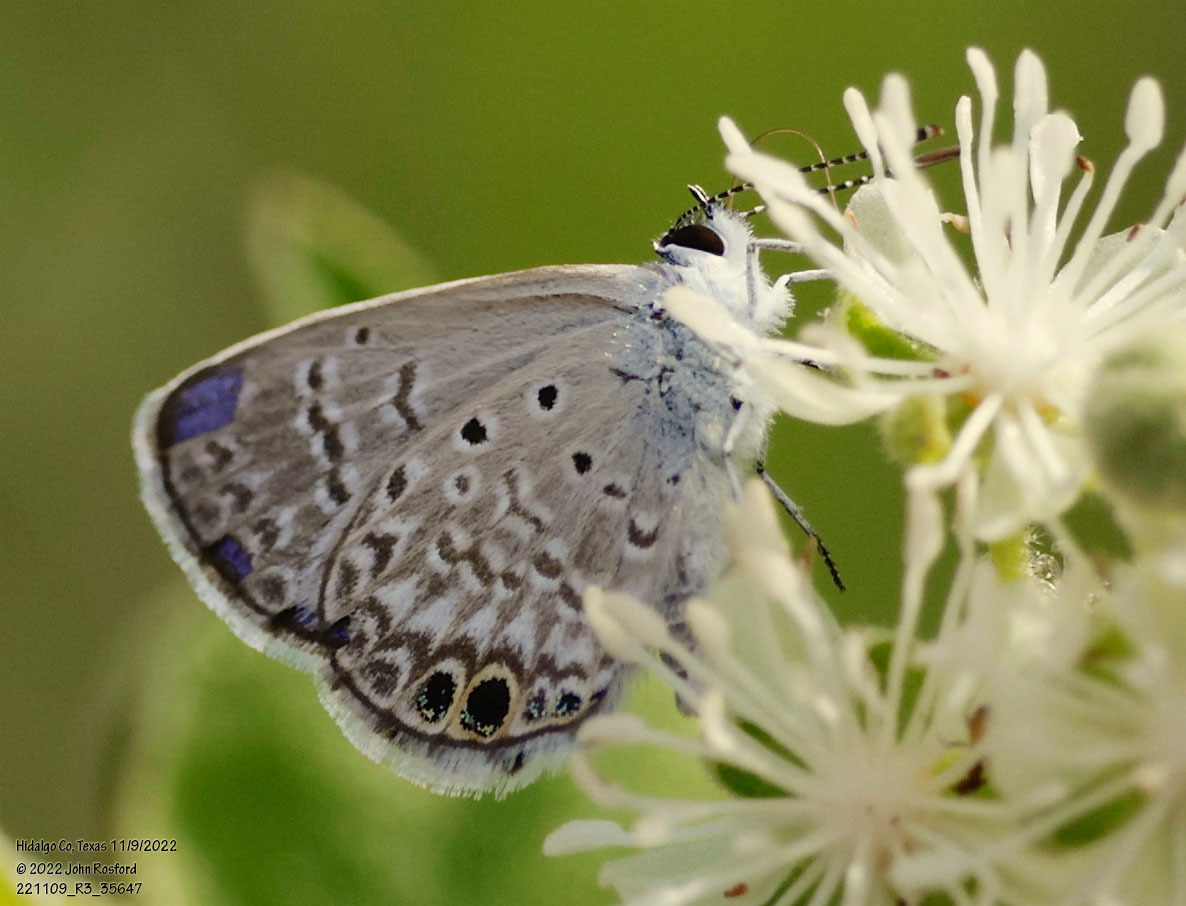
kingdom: Animalia
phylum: Arthropoda
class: Insecta
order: Lepidoptera
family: Lycaenidae
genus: Hemiargus
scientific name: Hemiargus ceraunus
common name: Ceraunus blue
